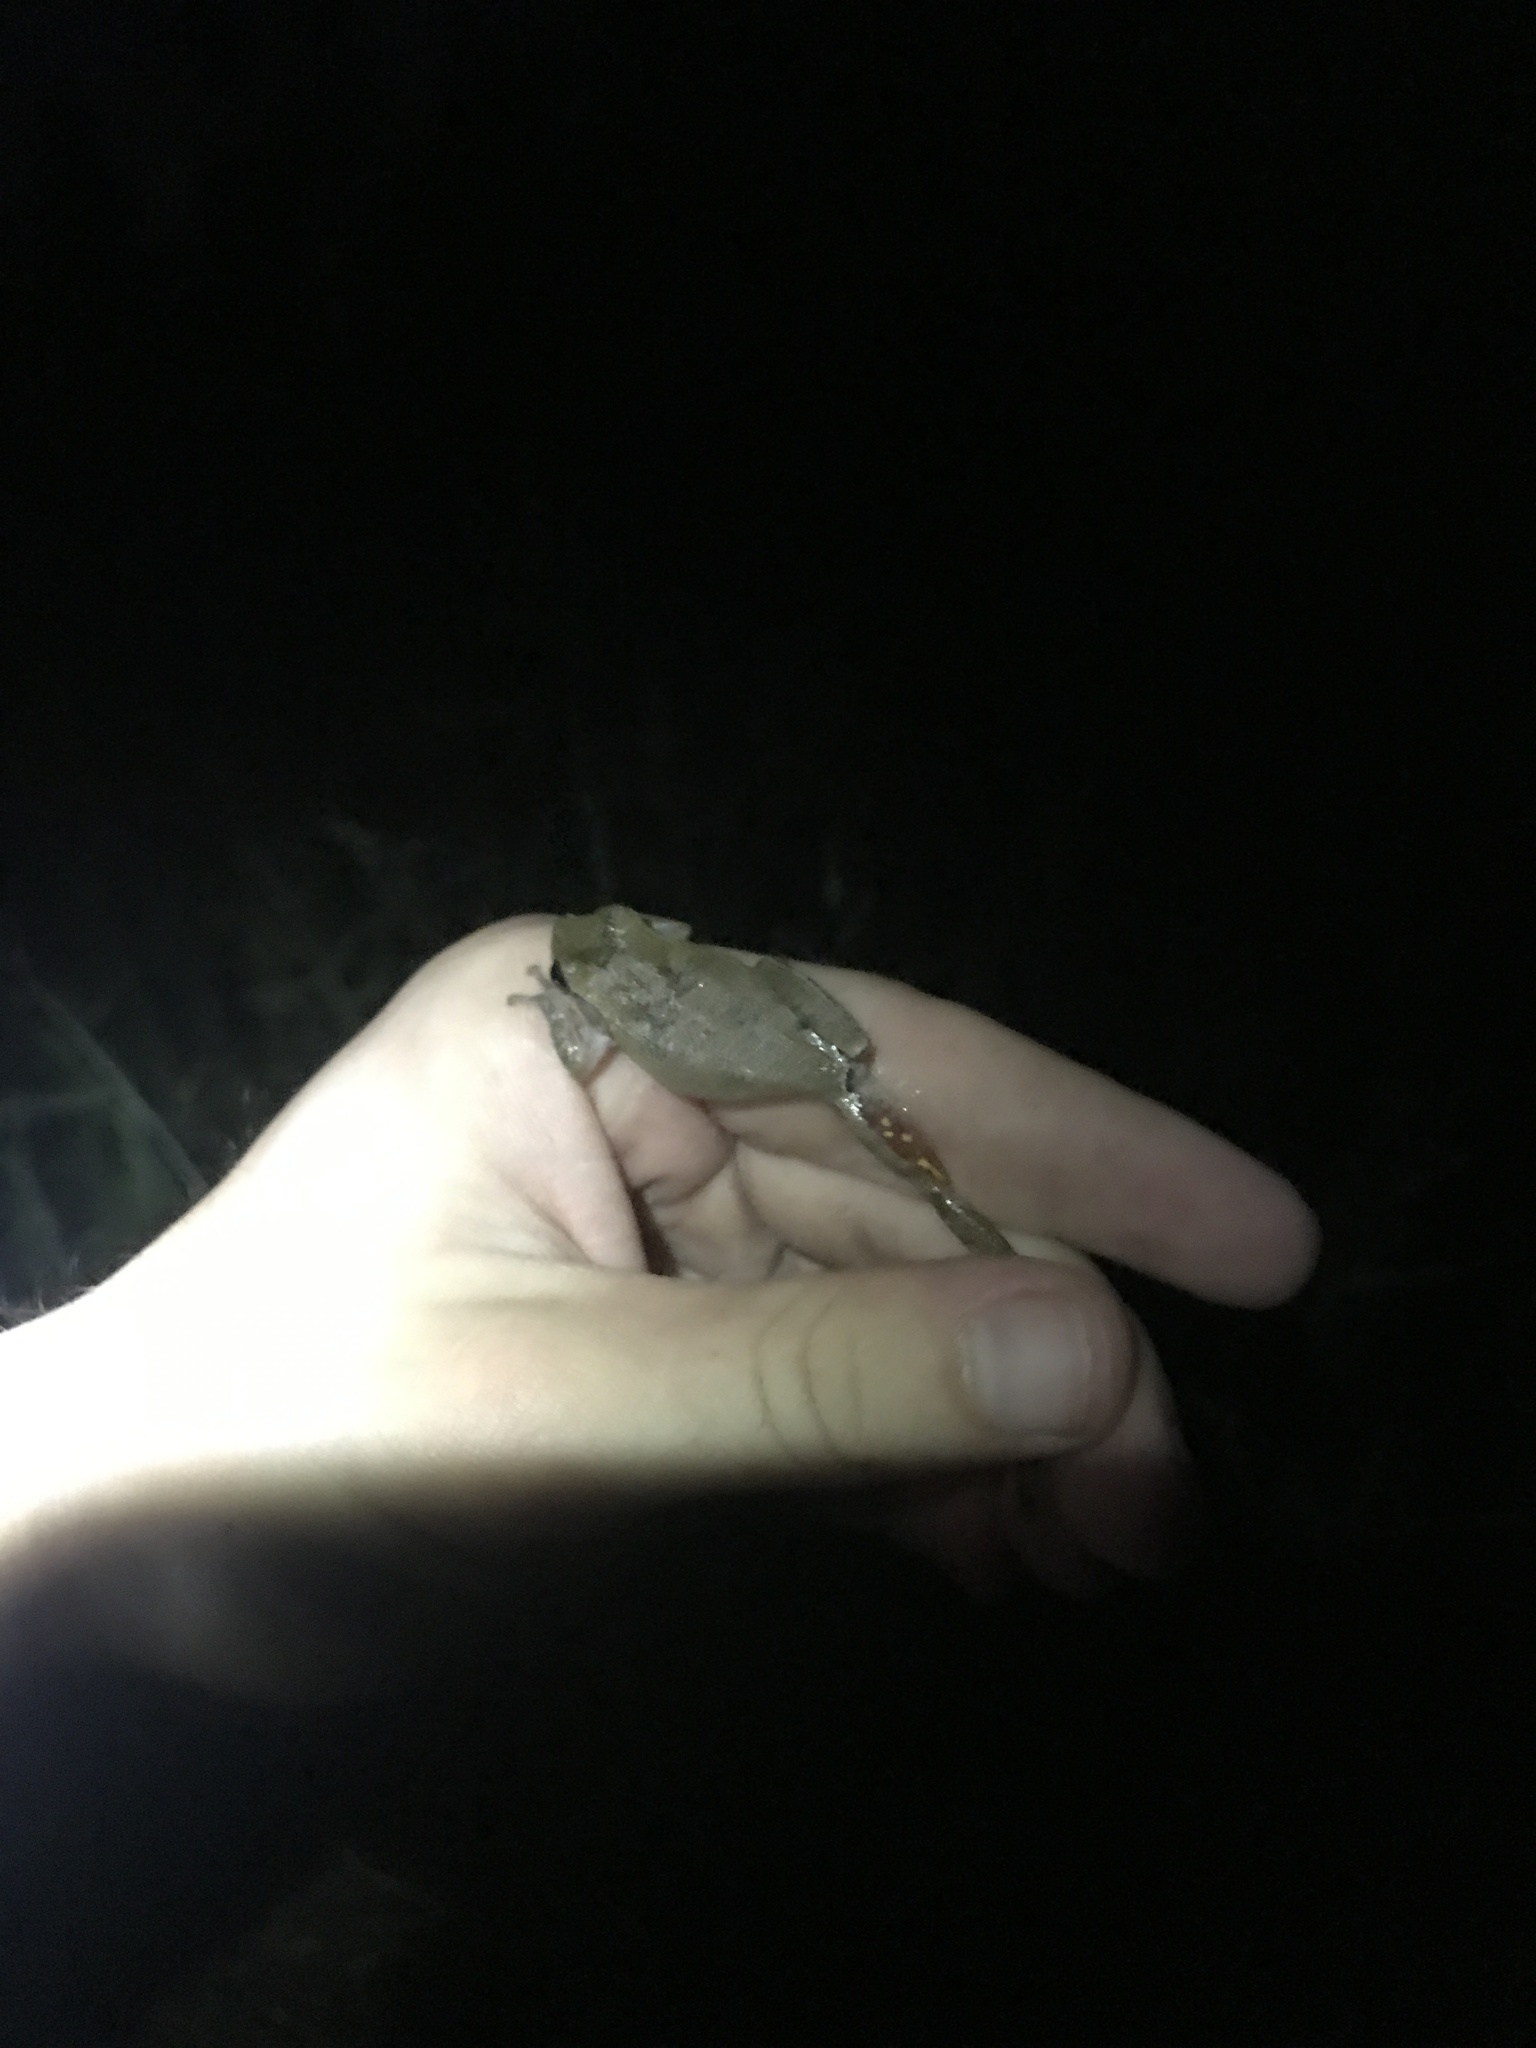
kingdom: Animalia
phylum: Chordata
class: Amphibia
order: Anura
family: Hylidae
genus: Hyla
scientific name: Hyla femoralis
